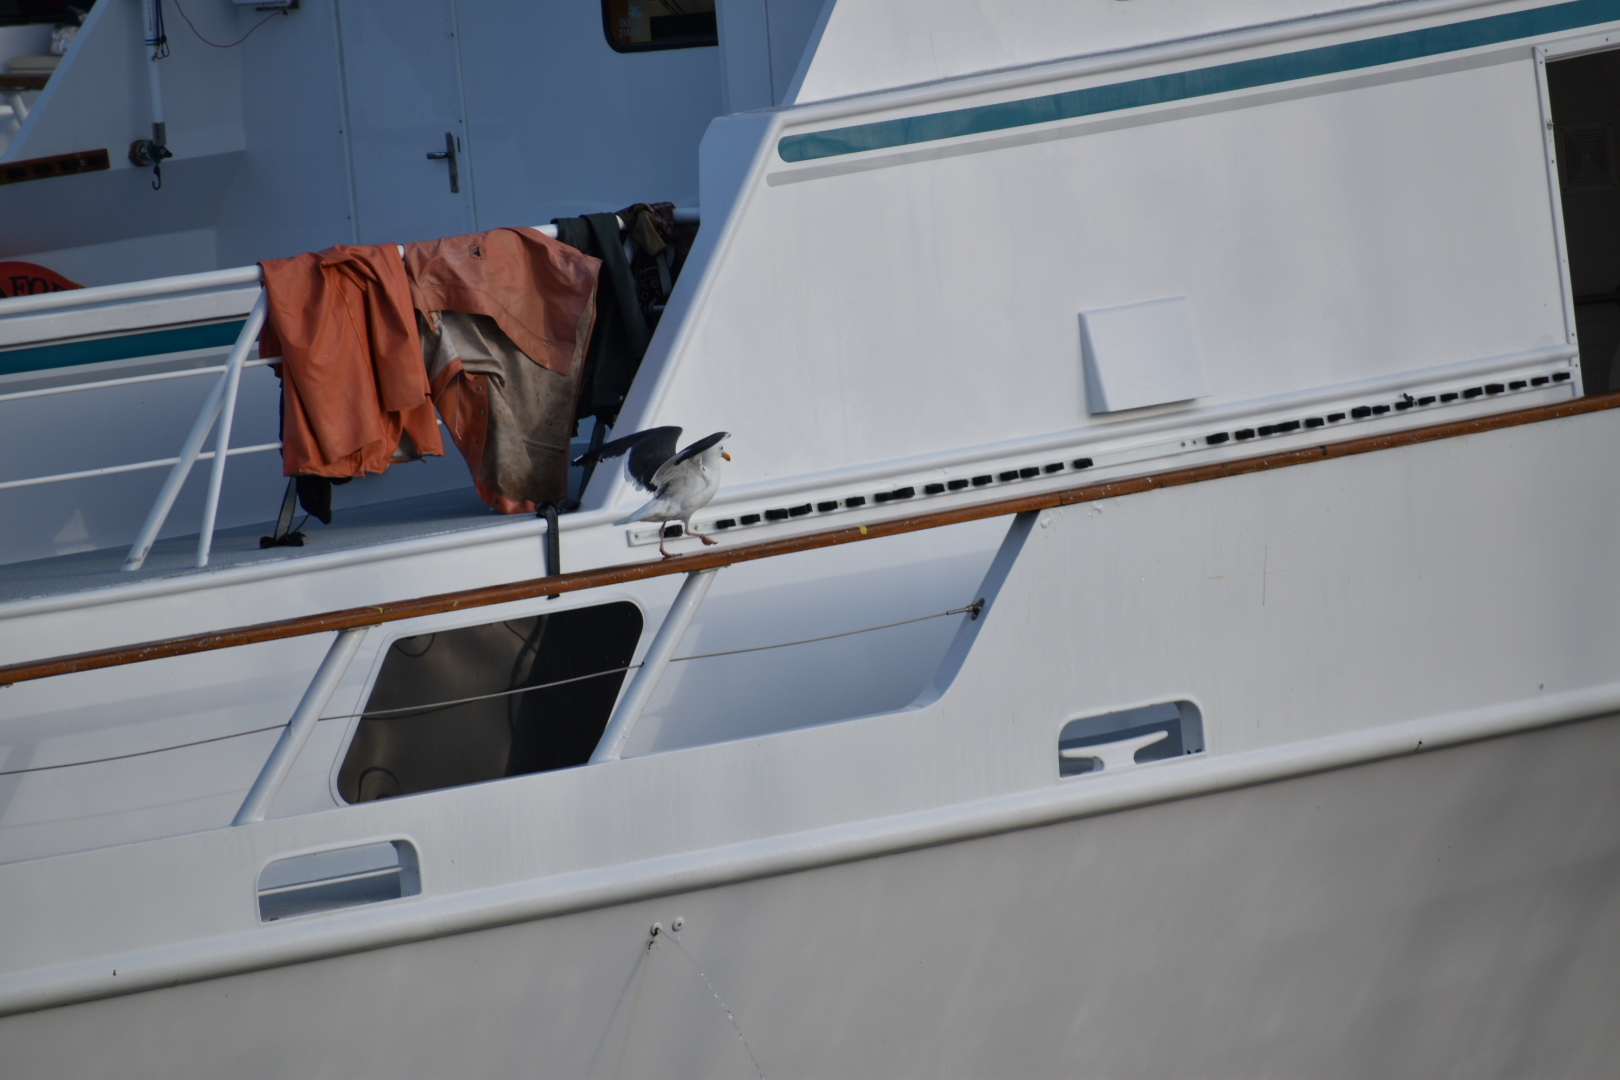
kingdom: Animalia
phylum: Chordata
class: Aves
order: Charadriiformes
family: Laridae
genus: Larus
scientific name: Larus occidentalis
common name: Western gull
